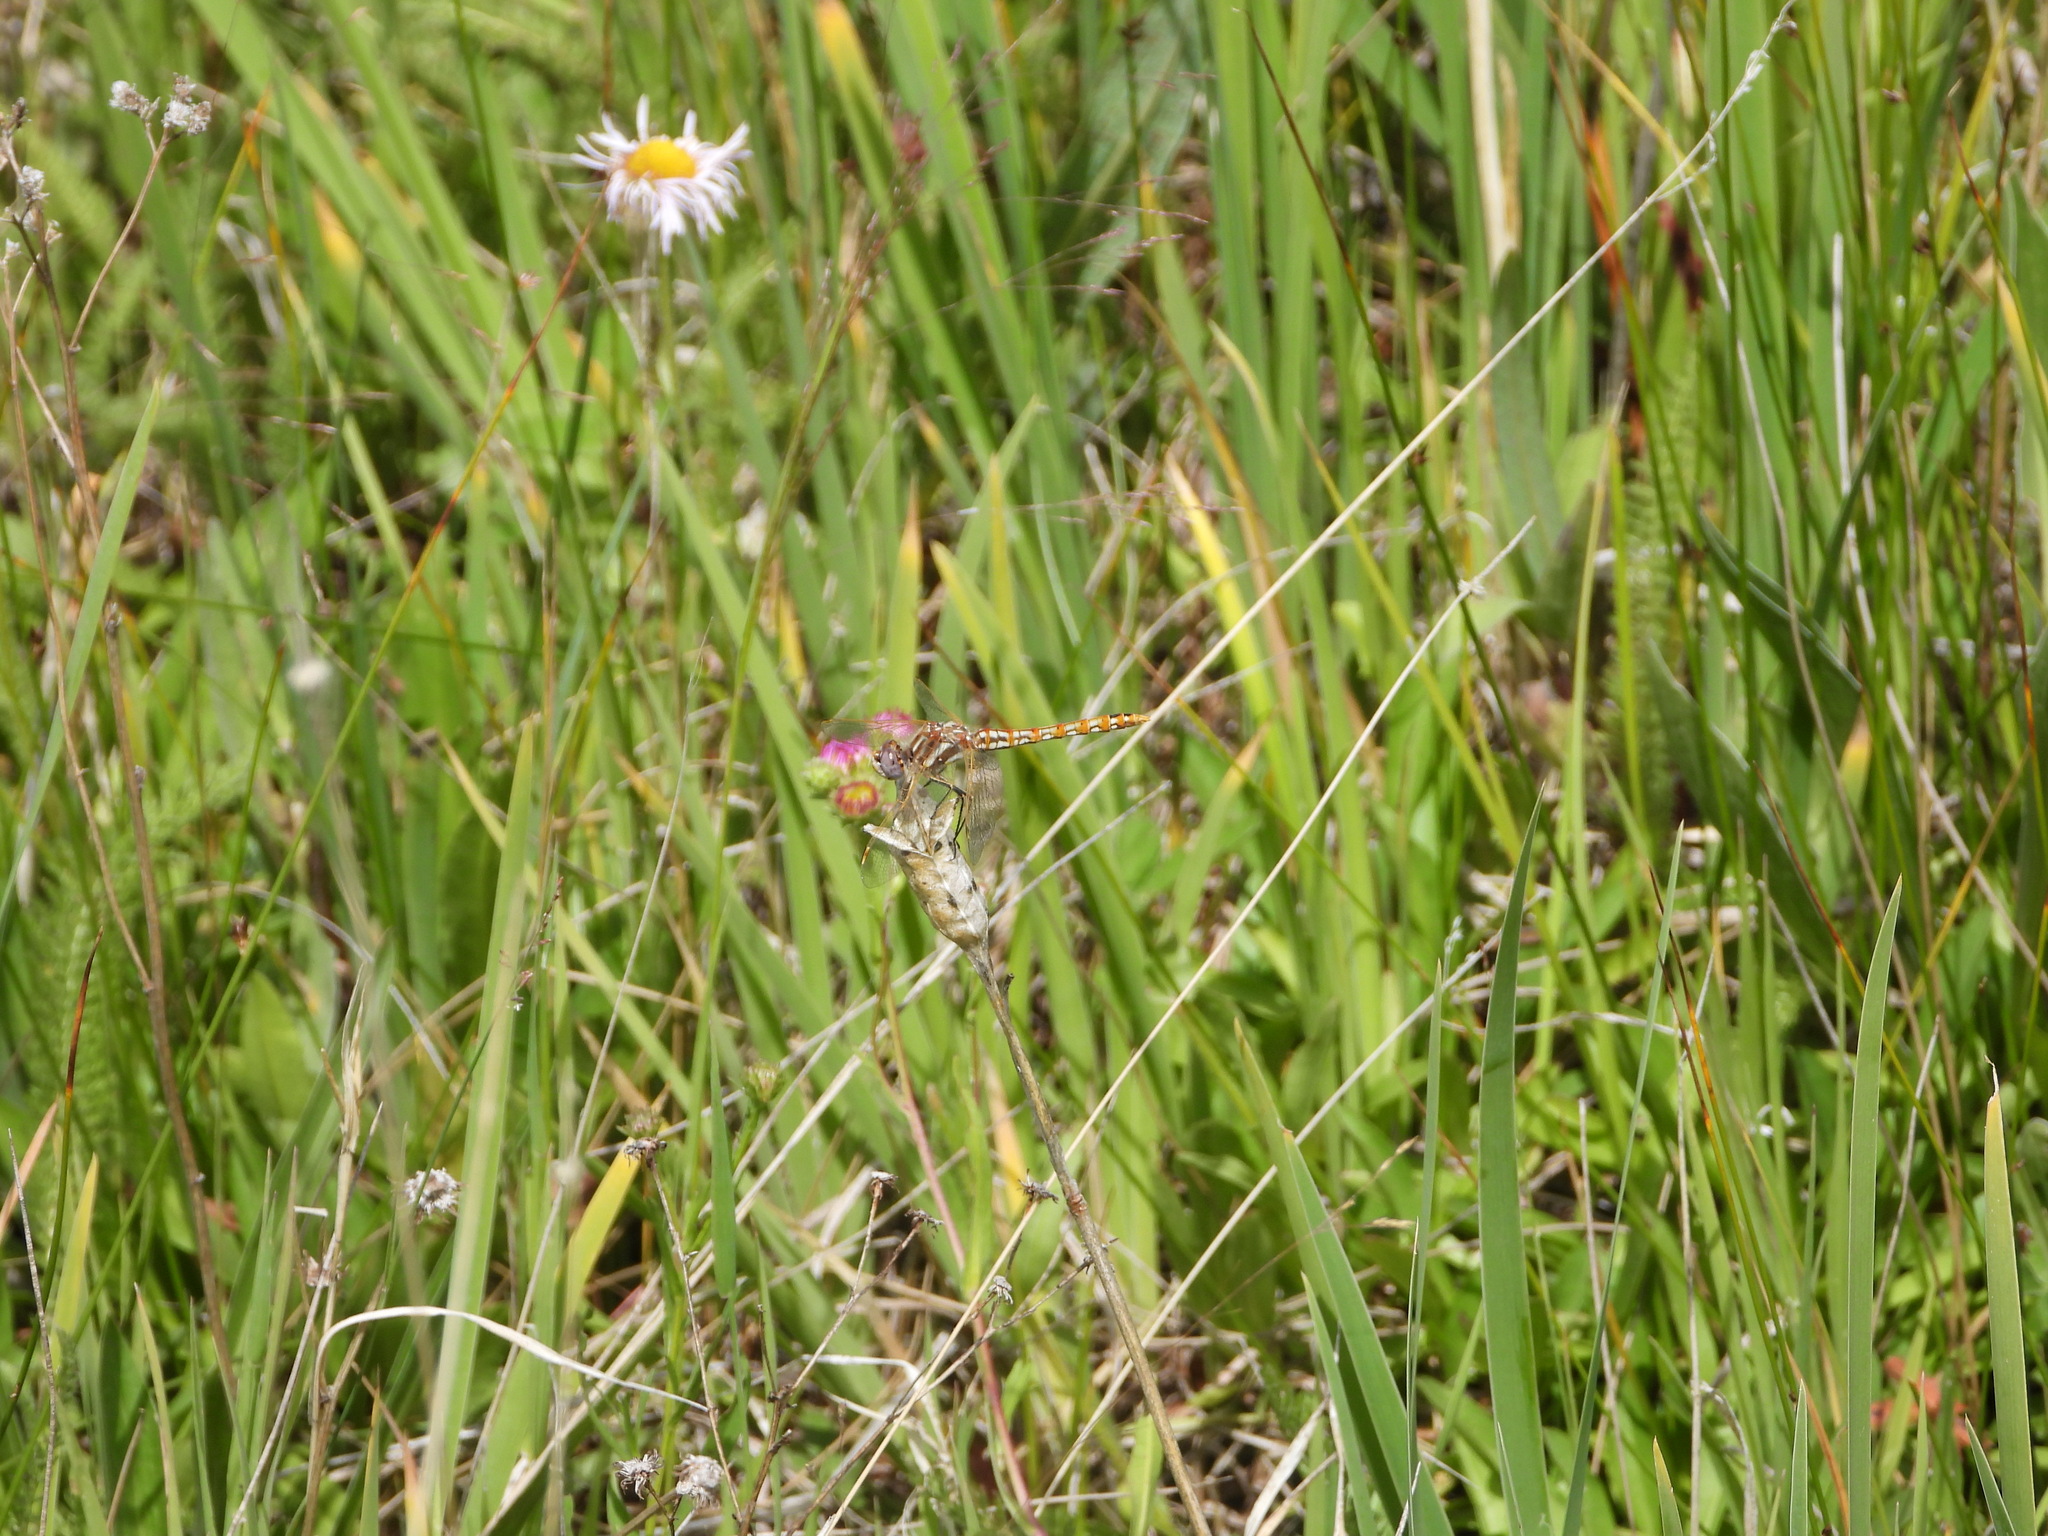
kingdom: Animalia
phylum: Arthropoda
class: Insecta
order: Odonata
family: Libellulidae
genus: Sympetrum
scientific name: Sympetrum corruptum
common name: Variegated meadowhawk
